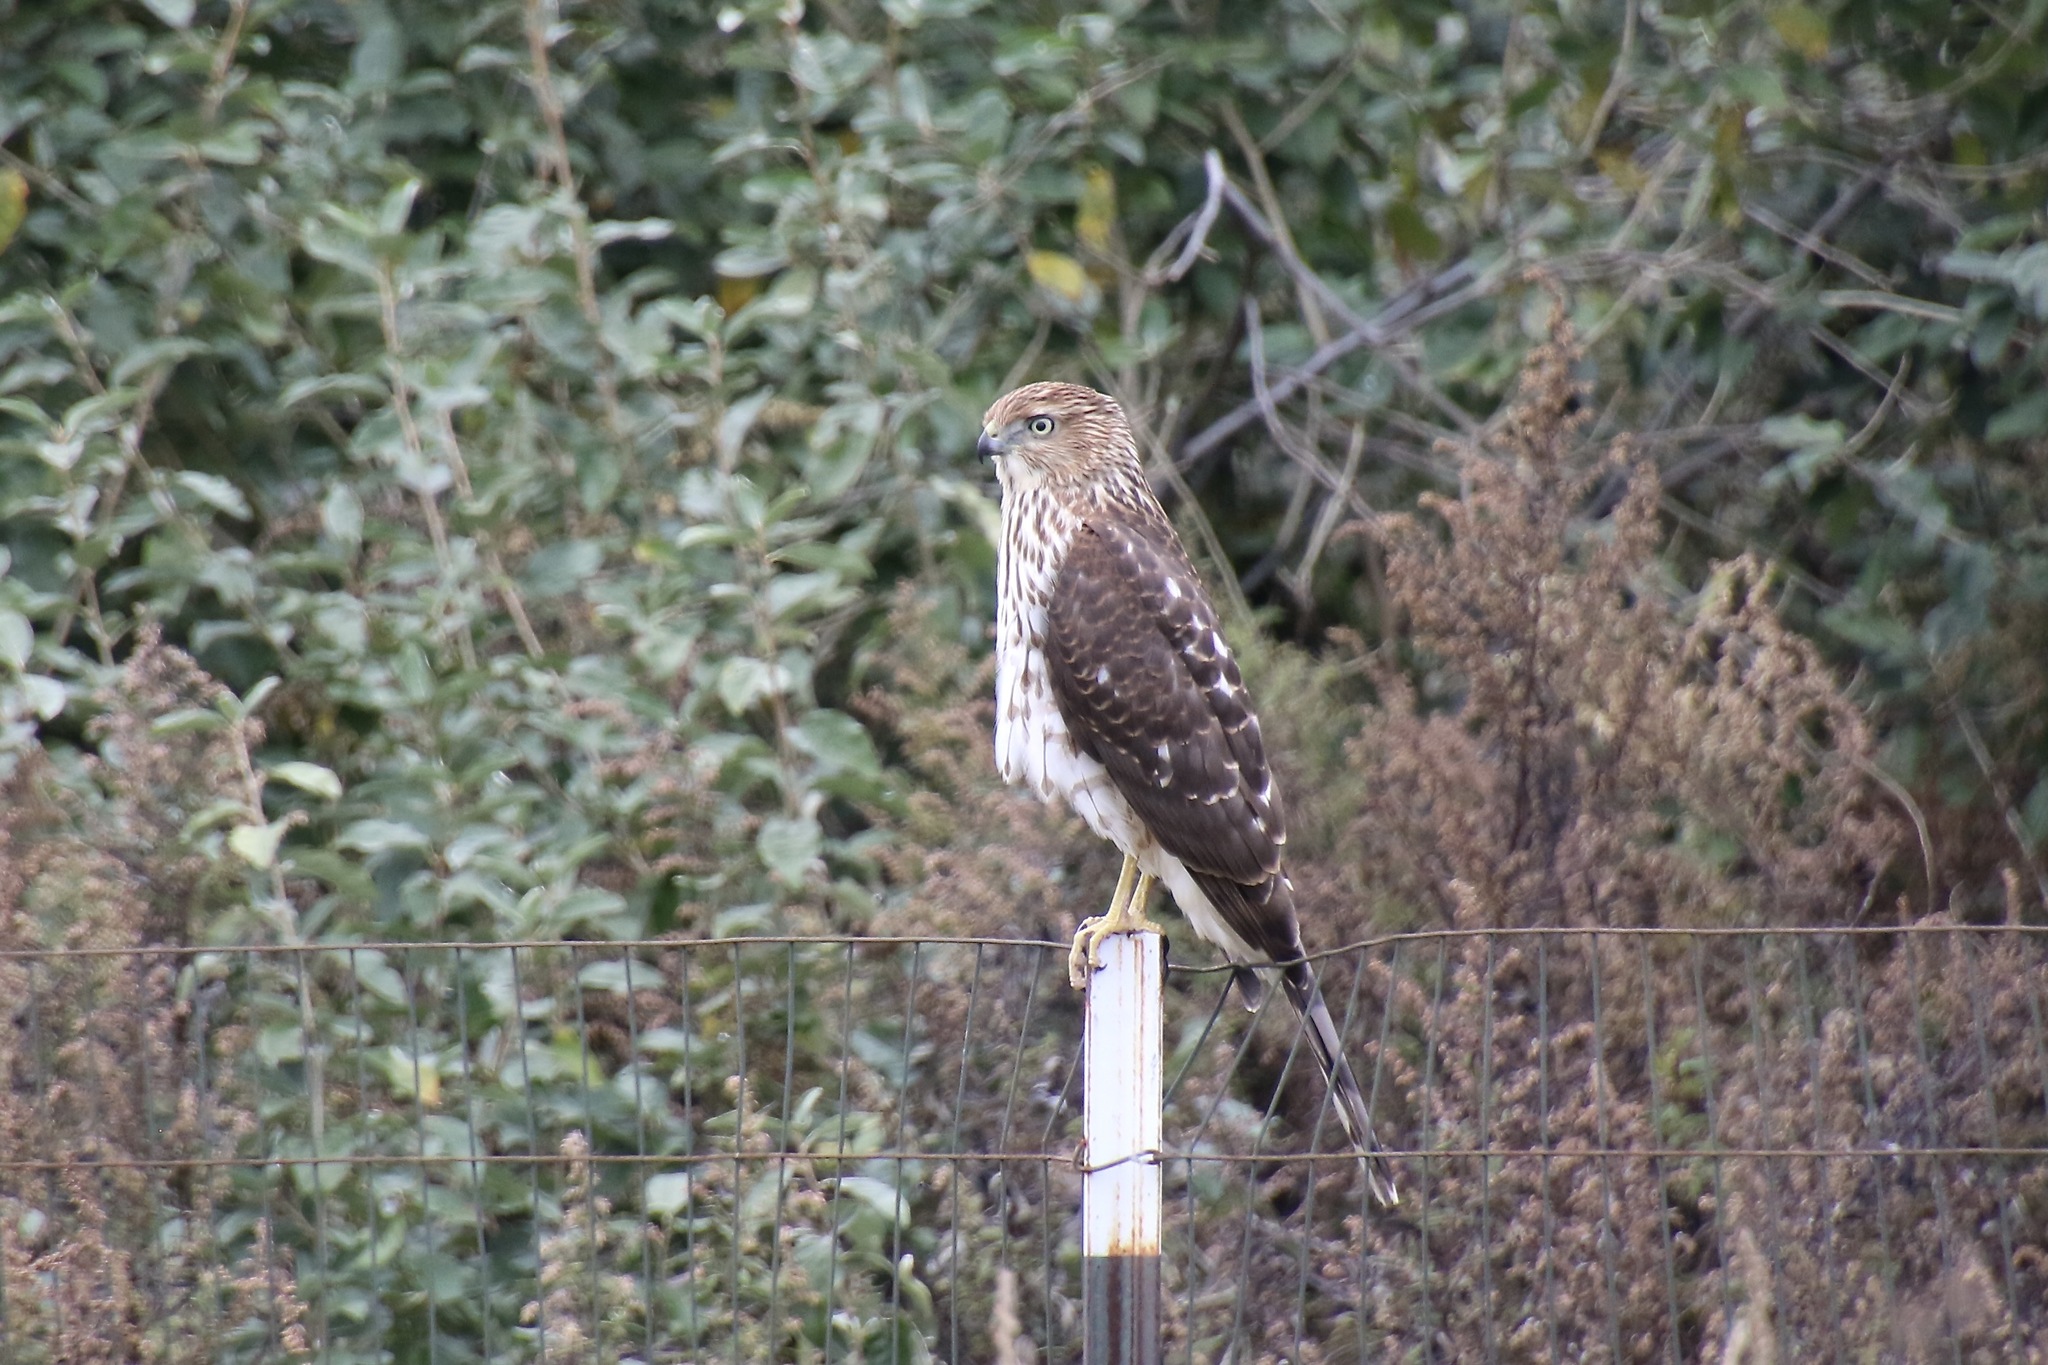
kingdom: Animalia
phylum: Chordata
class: Aves
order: Accipitriformes
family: Accipitridae
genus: Accipiter
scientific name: Accipiter cooperii
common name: Cooper's hawk
